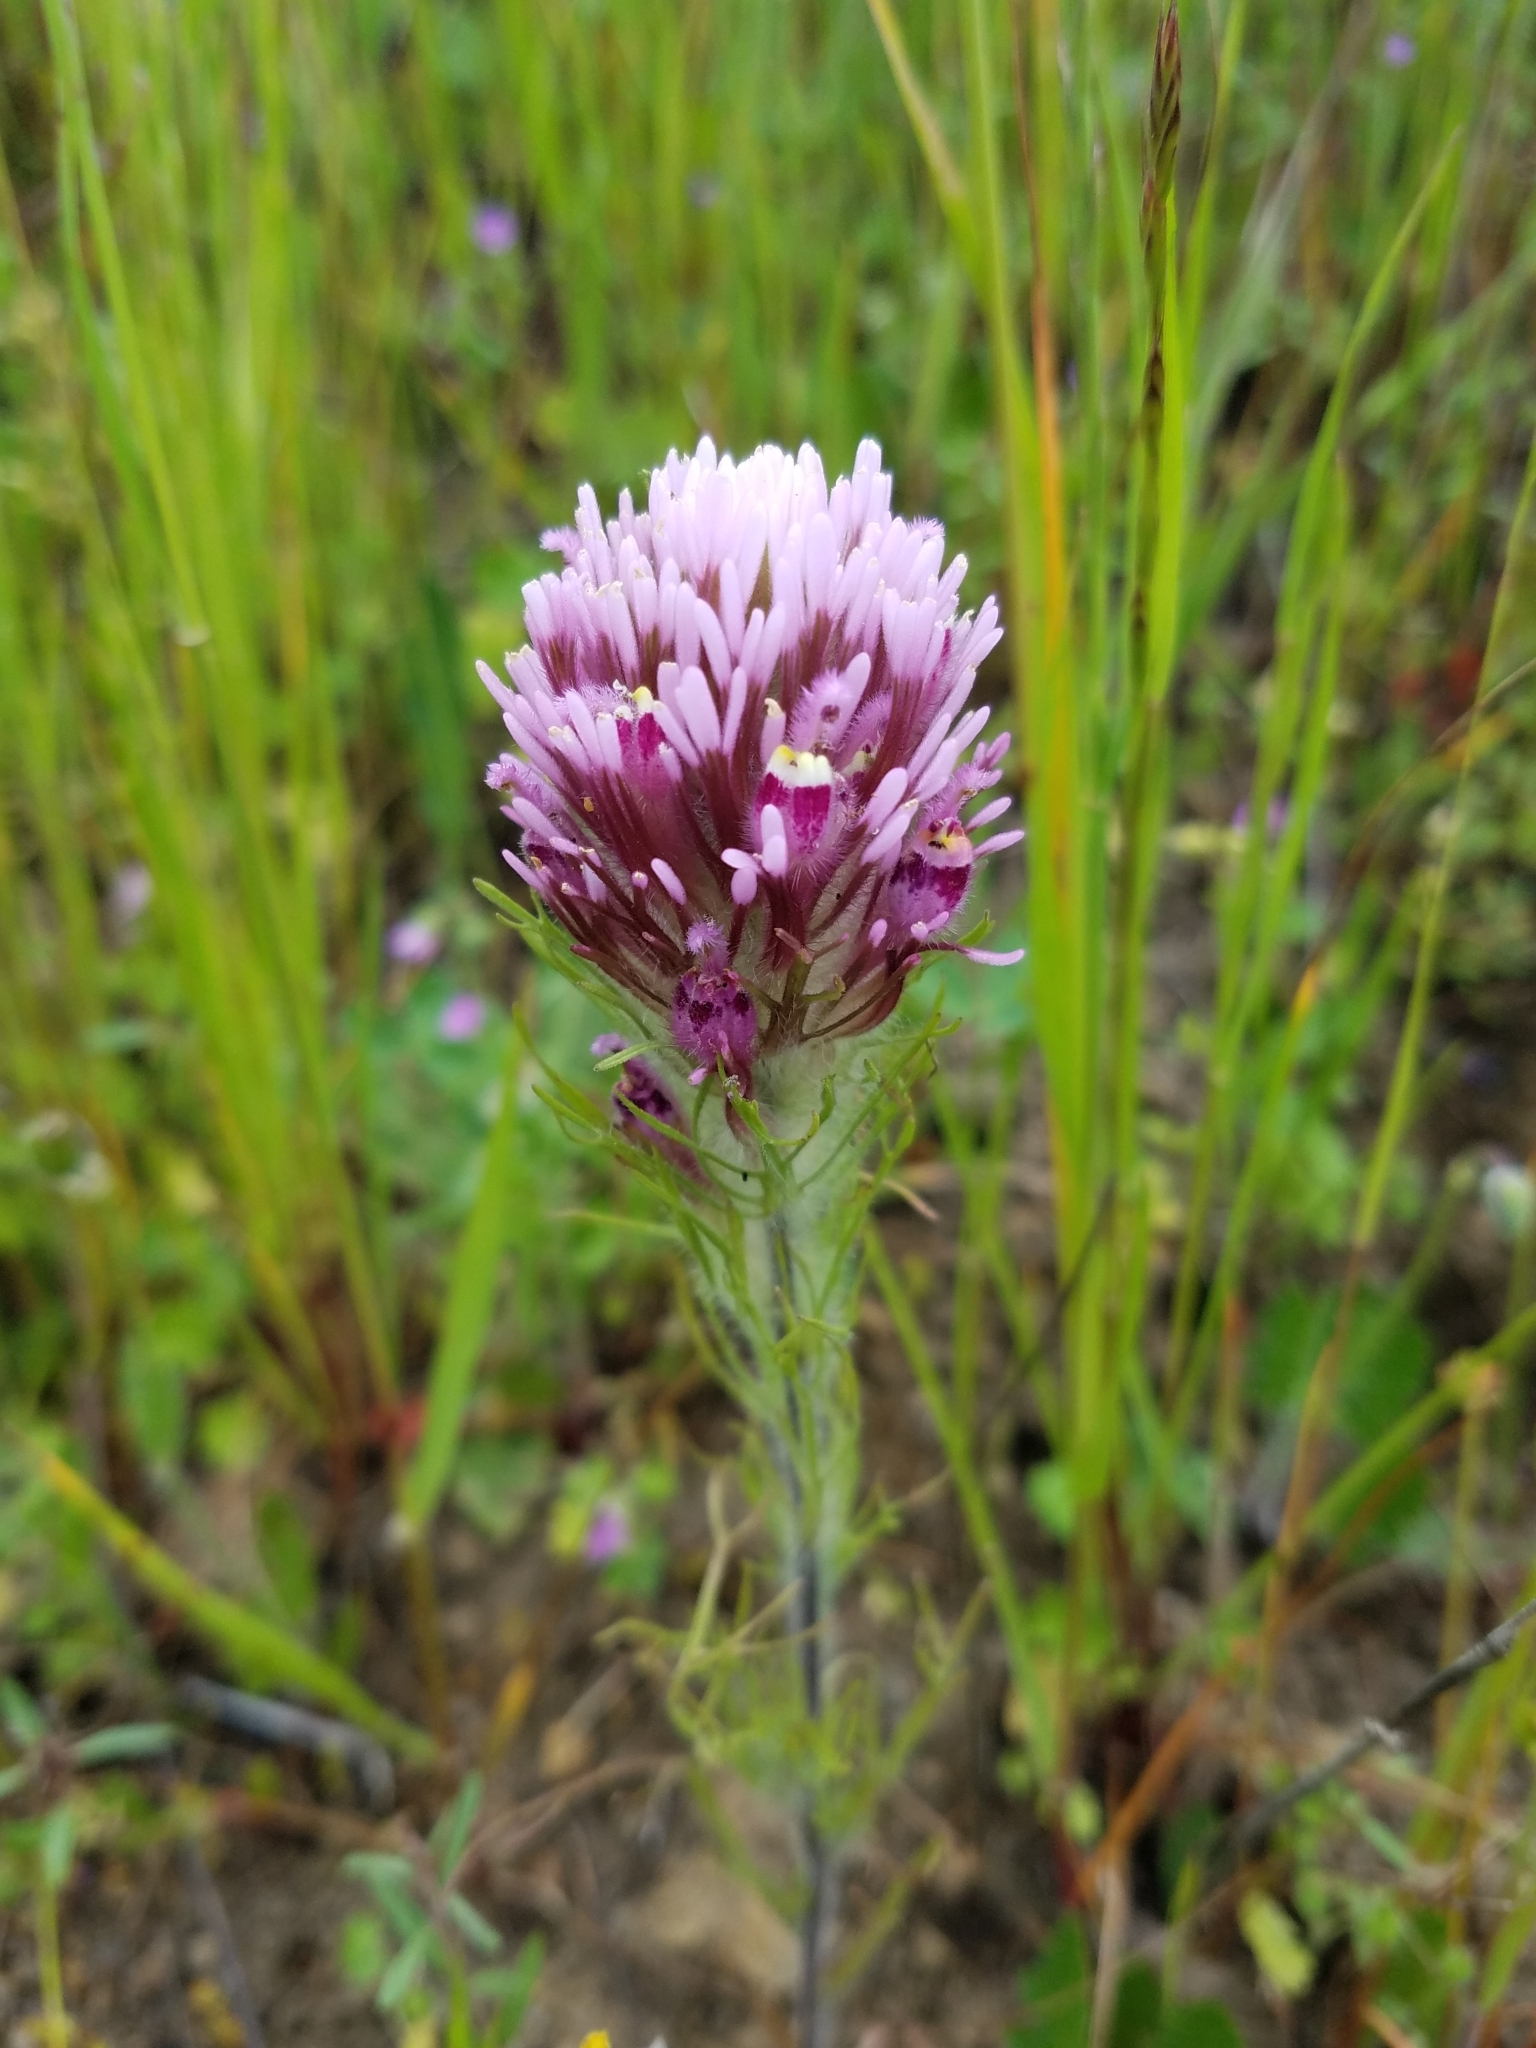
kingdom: Plantae
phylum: Tracheophyta
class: Magnoliopsida
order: Lamiales
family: Orobanchaceae
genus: Castilleja
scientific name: Castilleja exserta
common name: Purple owl-clover
